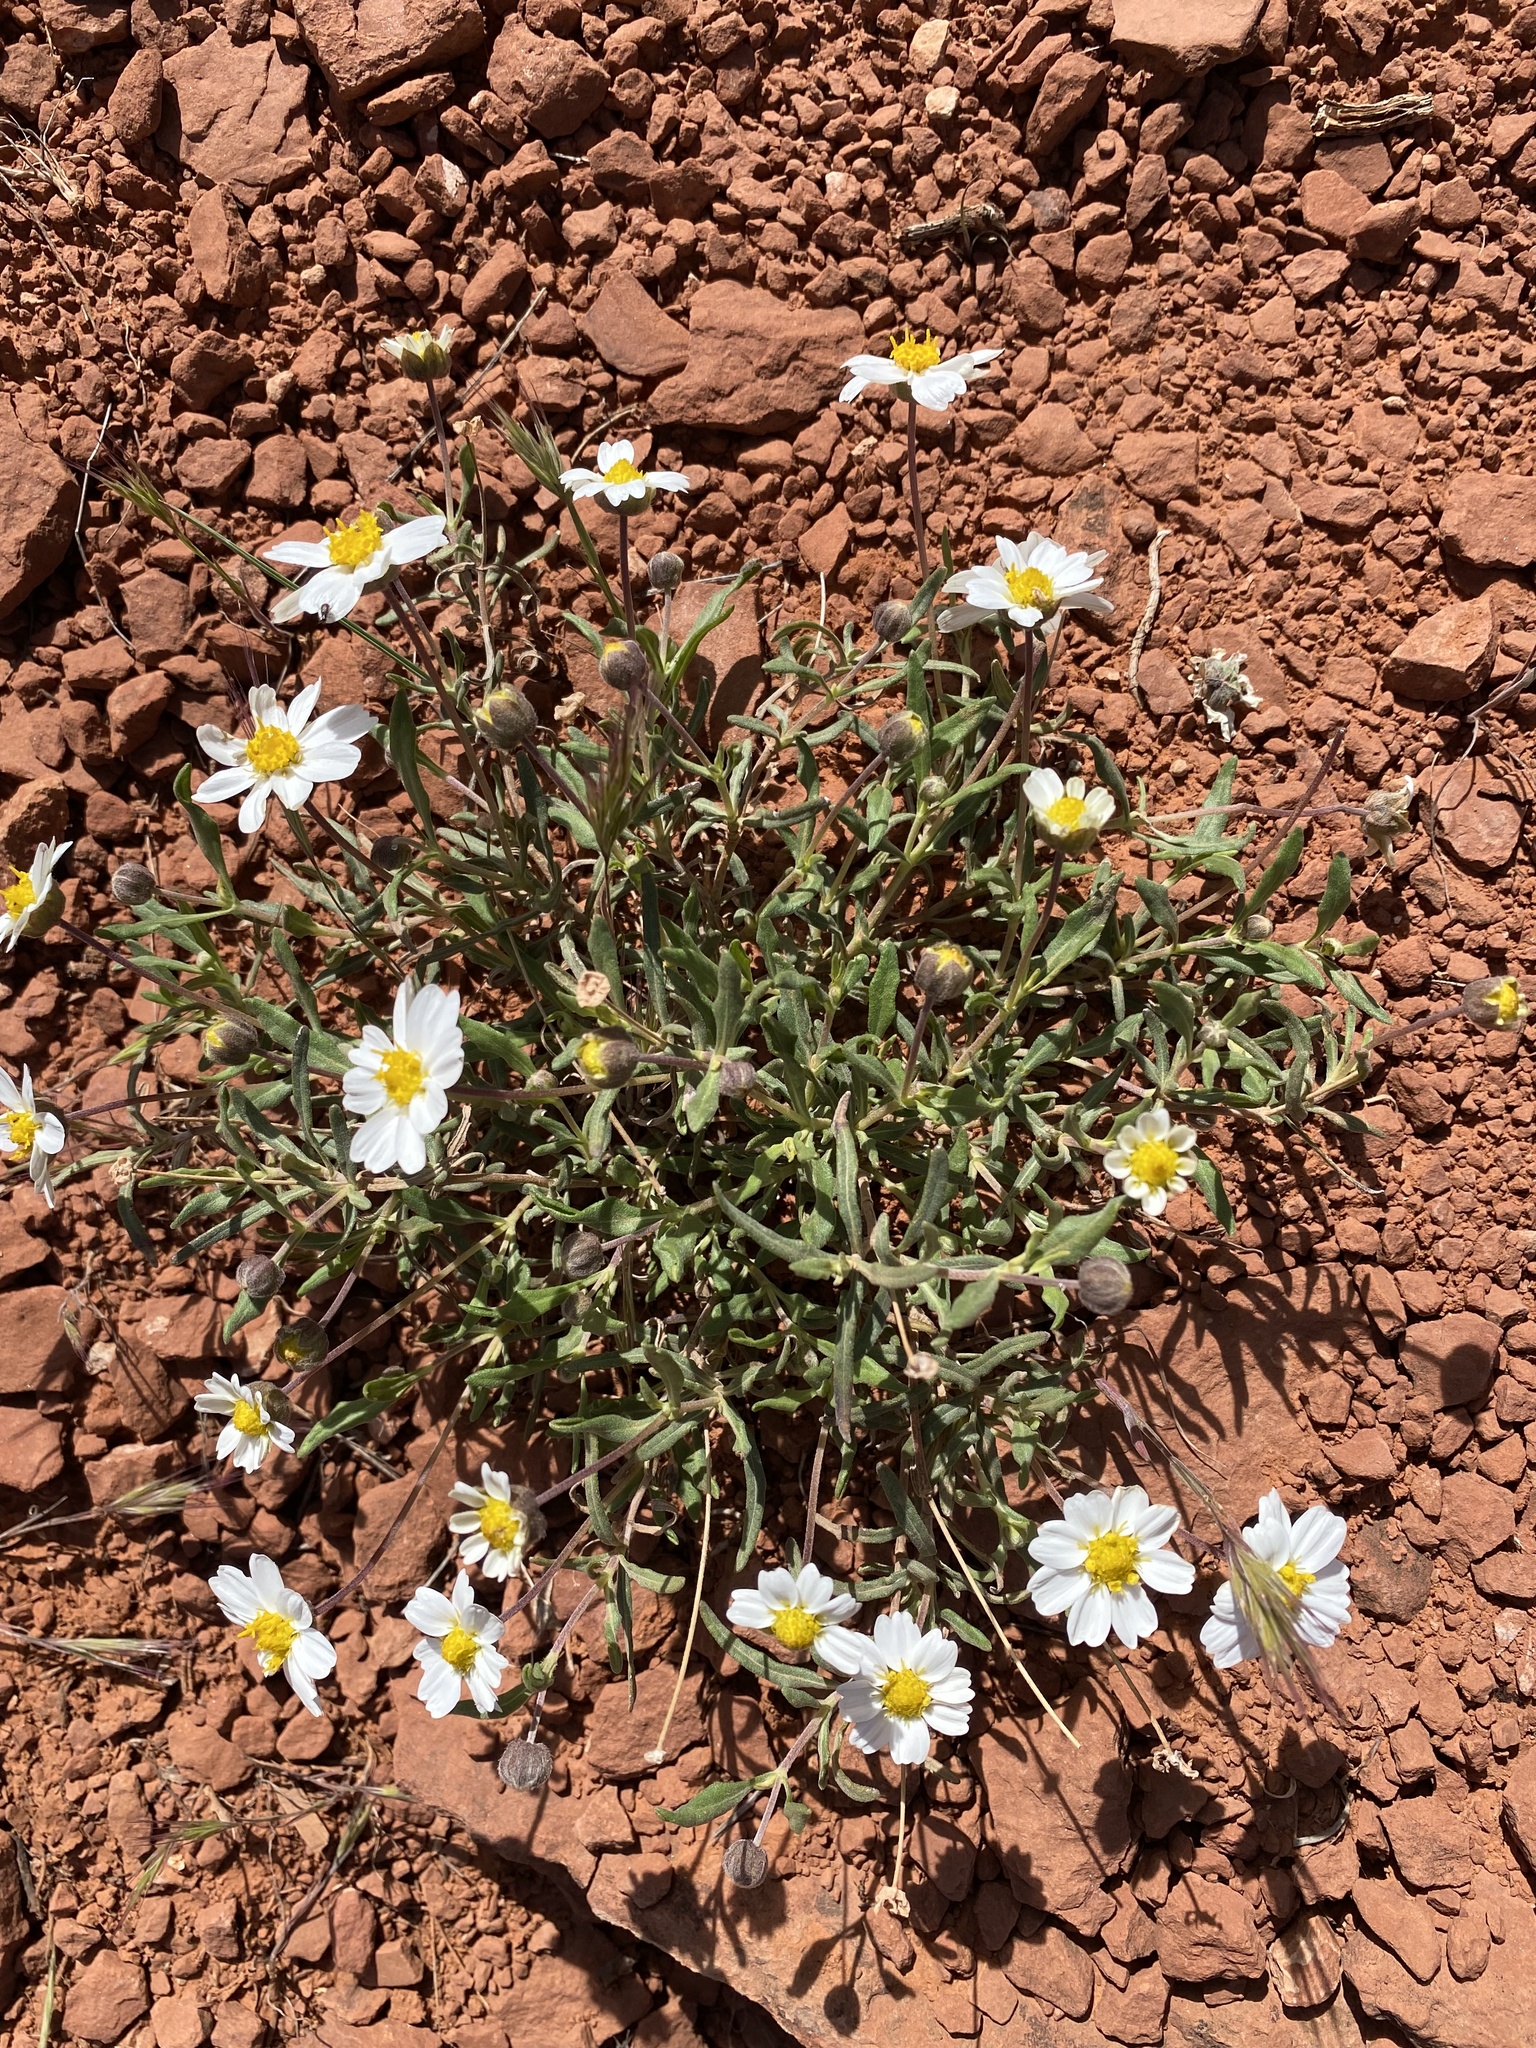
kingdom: Plantae
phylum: Tracheophyta
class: Magnoliopsida
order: Asterales
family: Asteraceae
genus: Melampodium
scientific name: Melampodium leucanthum
